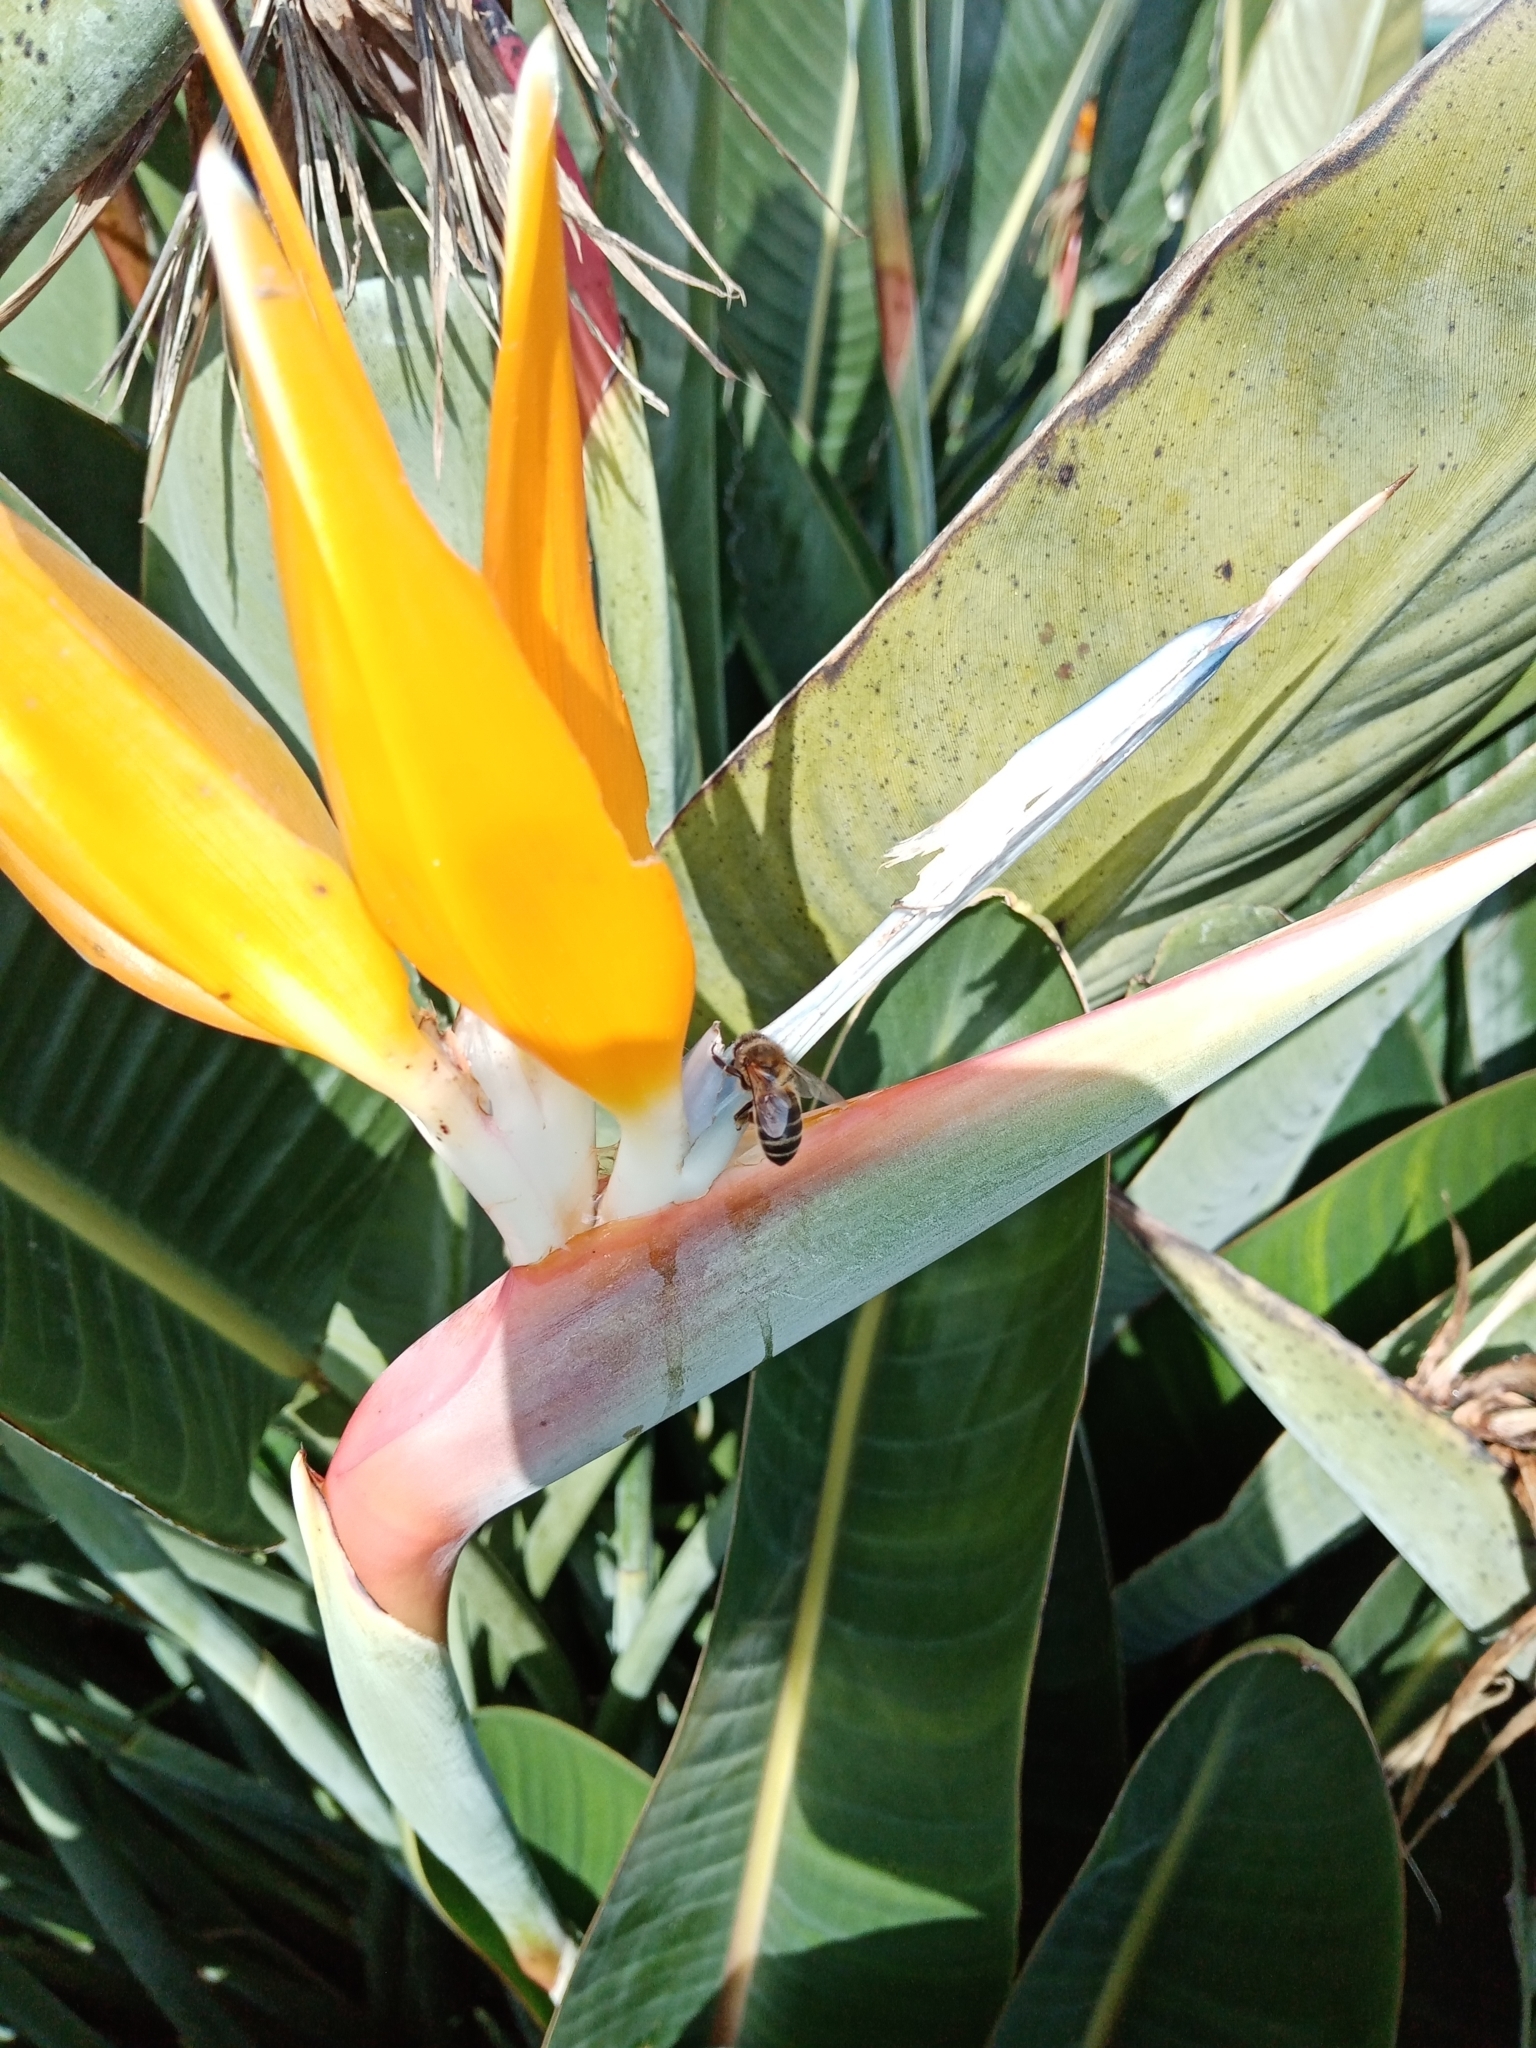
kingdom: Animalia
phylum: Arthropoda
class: Insecta
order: Hymenoptera
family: Apidae
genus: Apis
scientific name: Apis mellifera
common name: Honey bee
